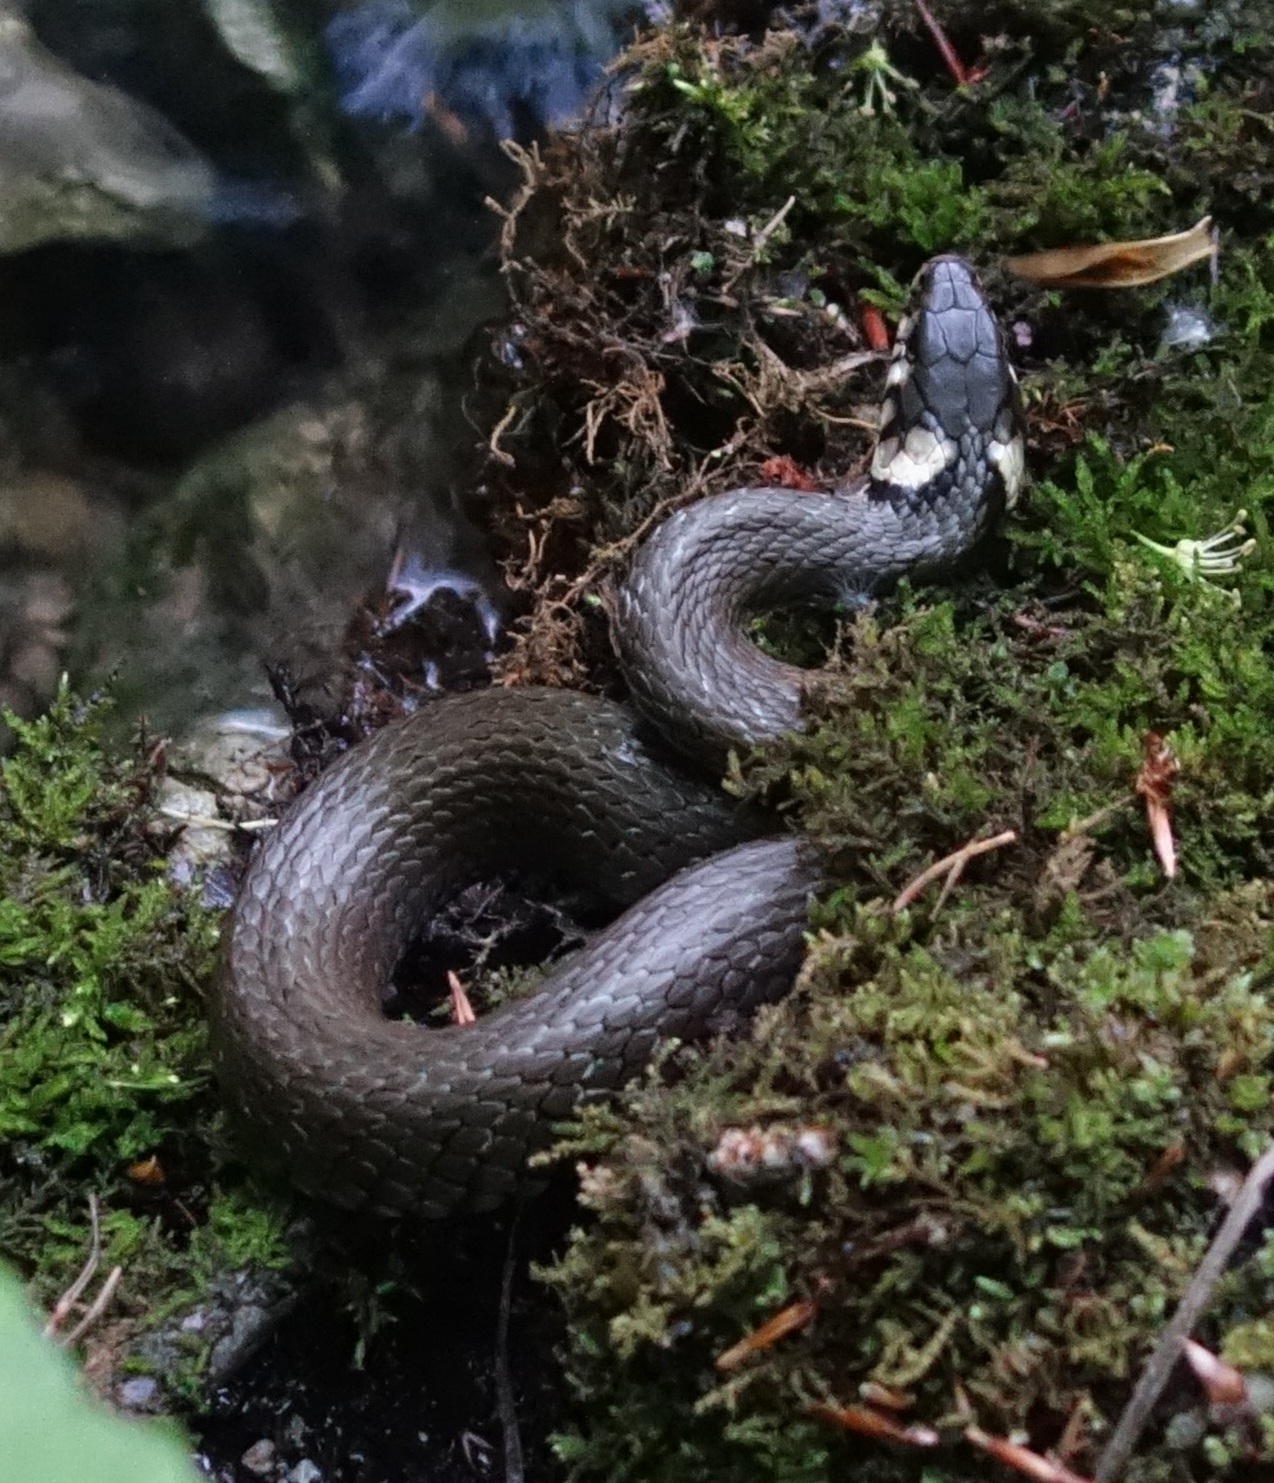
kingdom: Animalia
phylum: Chordata
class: Squamata
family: Colubridae
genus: Natrix
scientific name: Natrix natrix
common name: Grass snake
